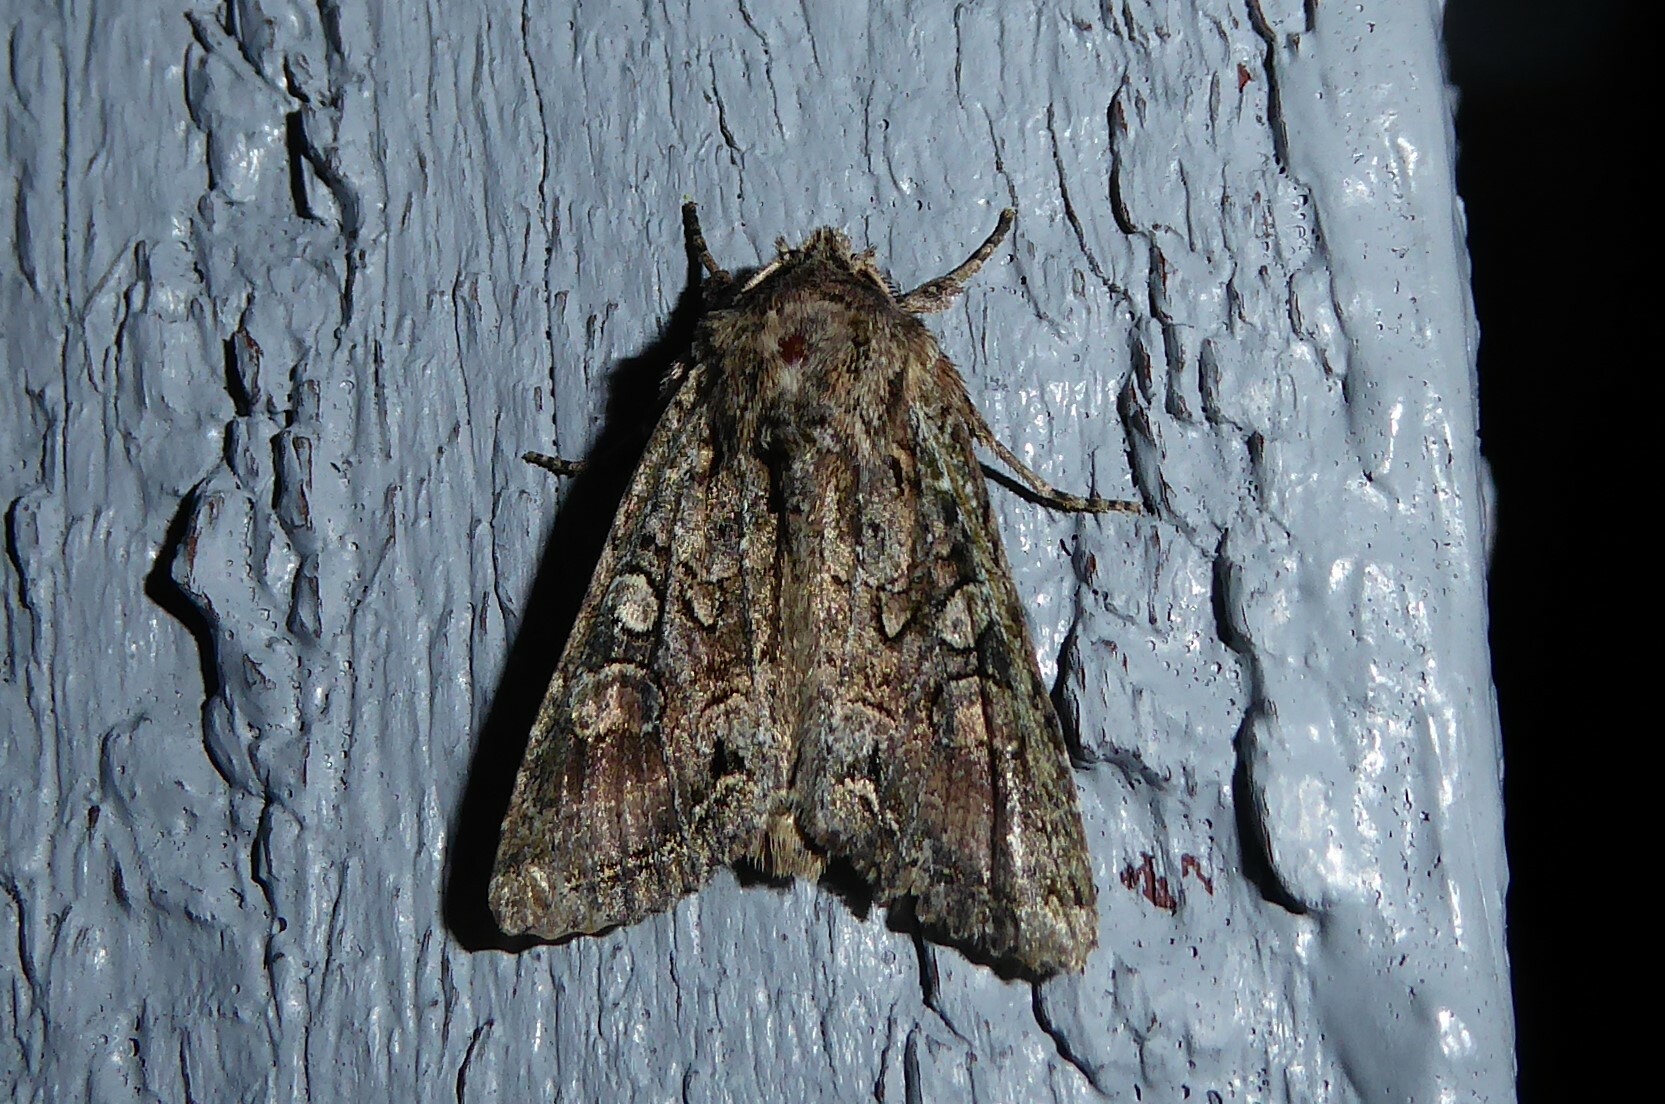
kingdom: Animalia
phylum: Arthropoda
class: Insecta
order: Lepidoptera
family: Noctuidae
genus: Ichneutica
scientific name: Ichneutica mutans
